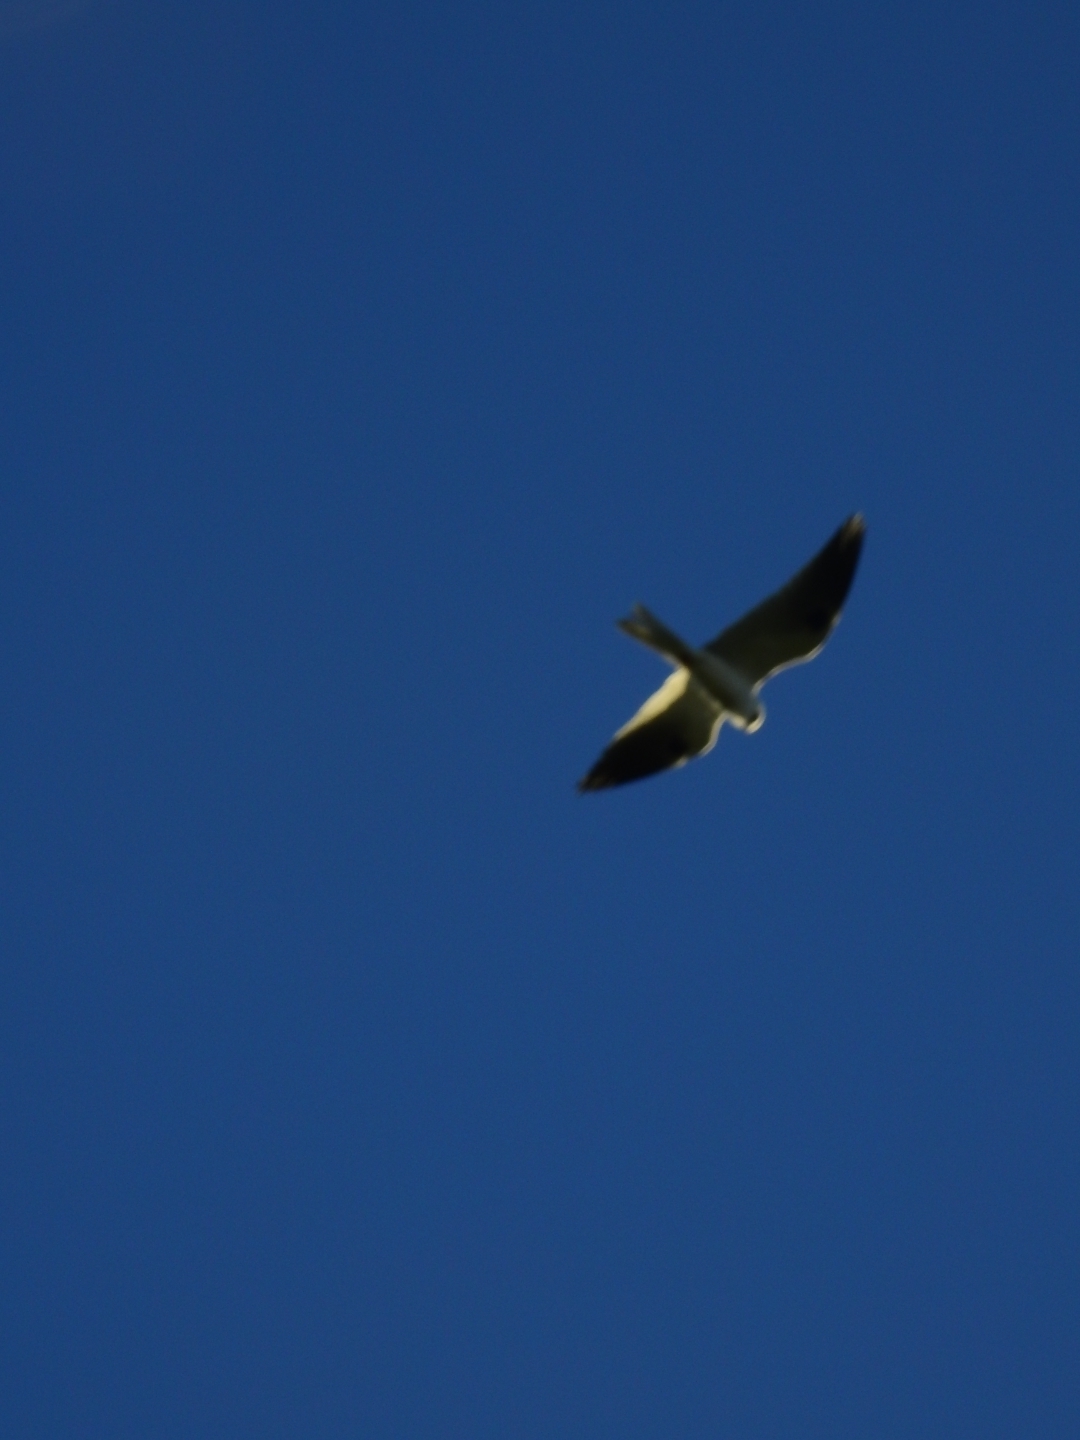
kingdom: Animalia
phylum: Chordata
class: Aves
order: Accipitriformes
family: Accipitridae
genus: Elanus
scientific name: Elanus leucurus
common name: White-tailed kite
